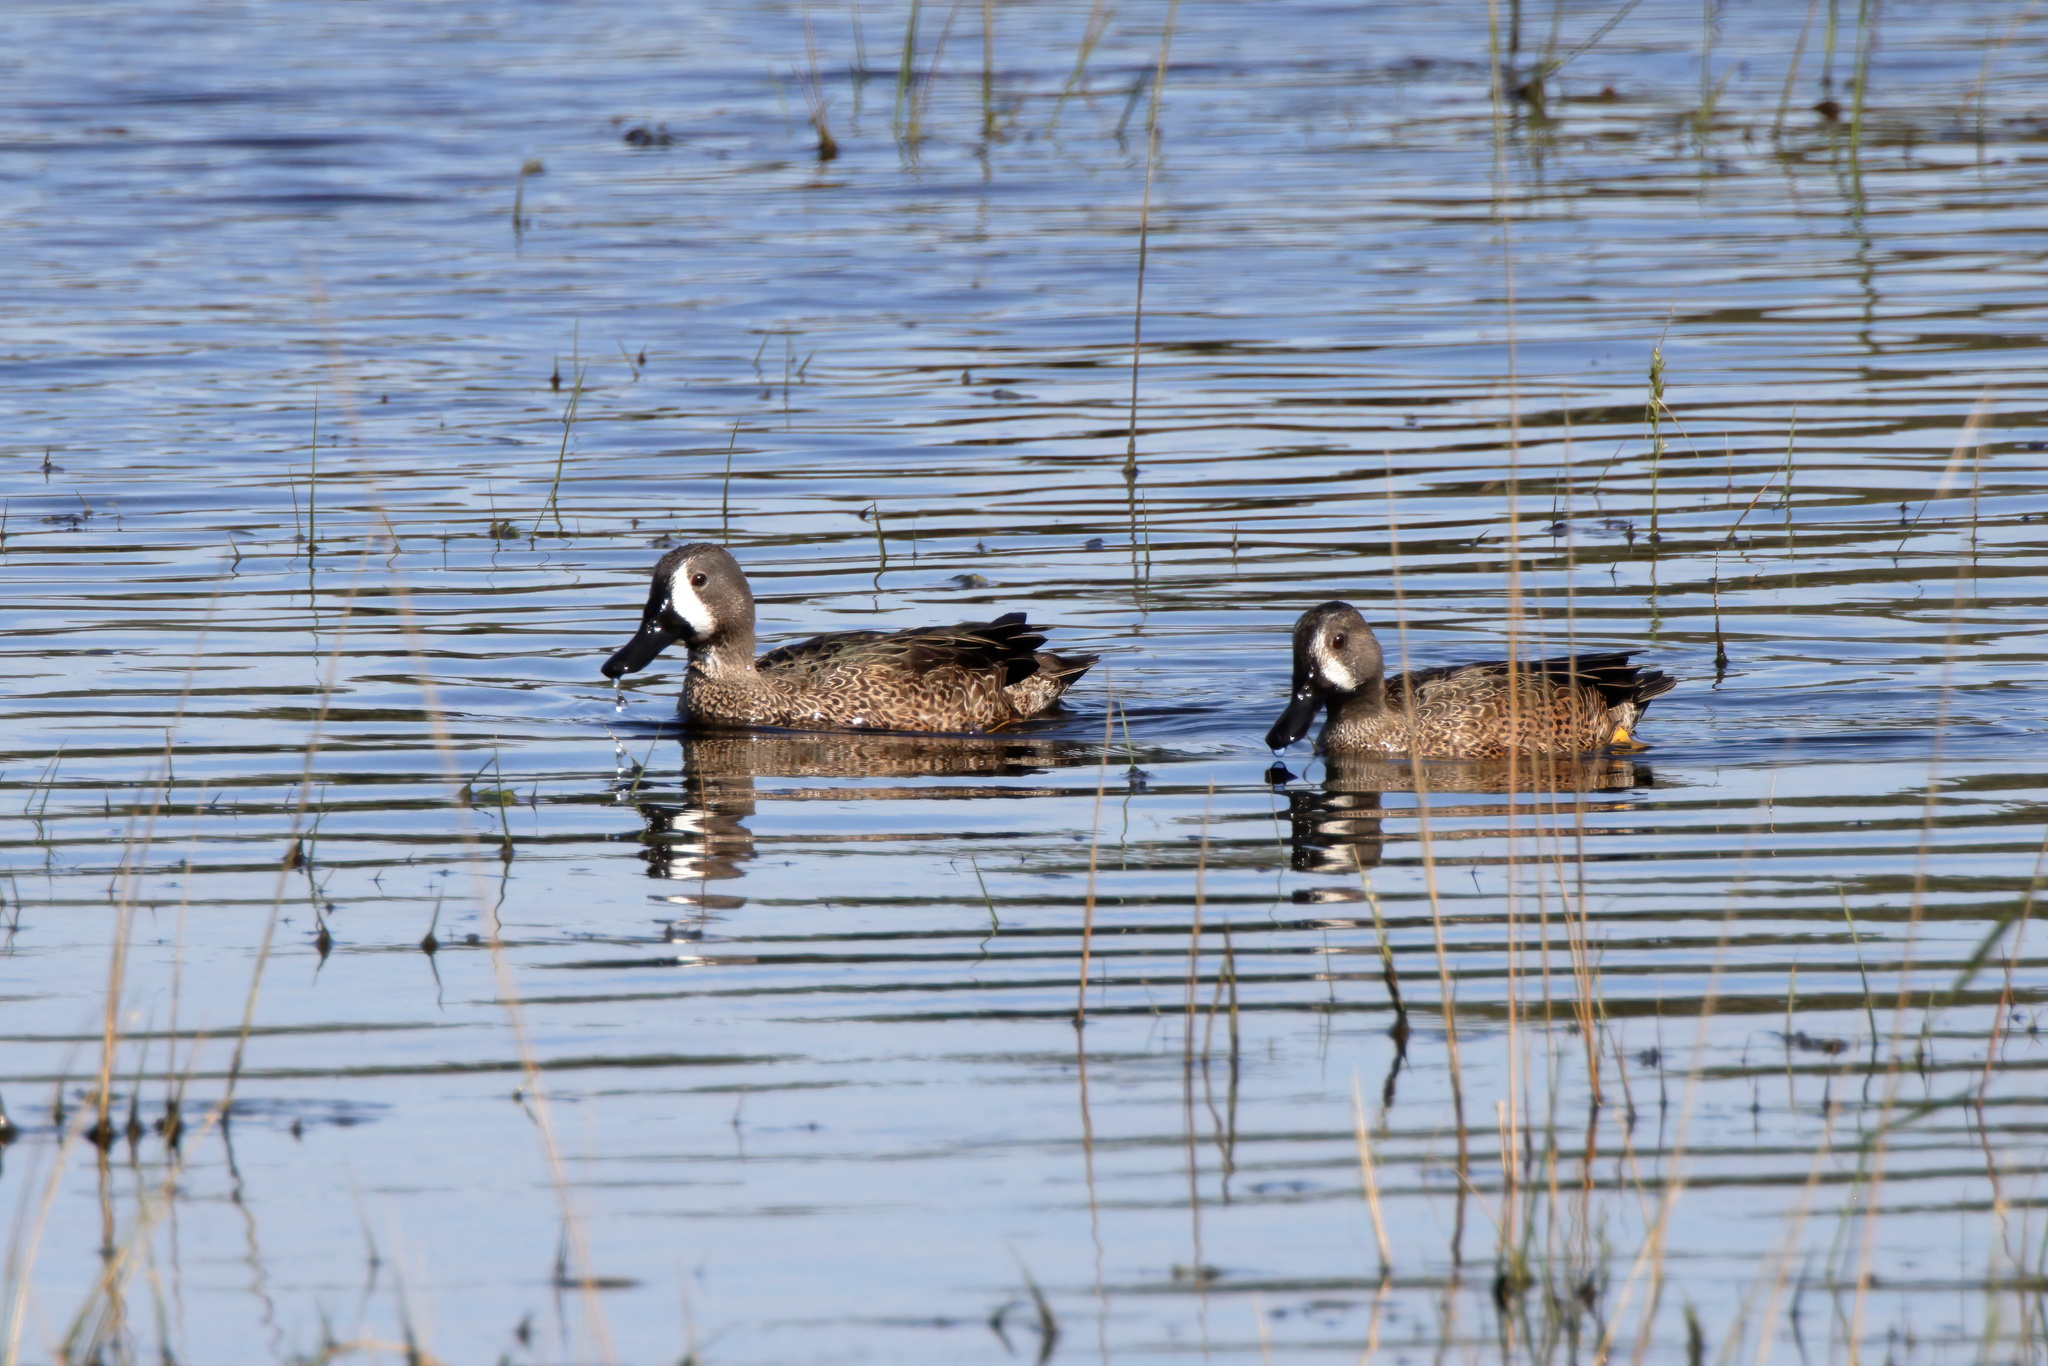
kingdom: Animalia
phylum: Chordata
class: Aves
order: Anseriformes
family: Anatidae
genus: Spatula
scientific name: Spatula discors
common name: Blue-winged teal
